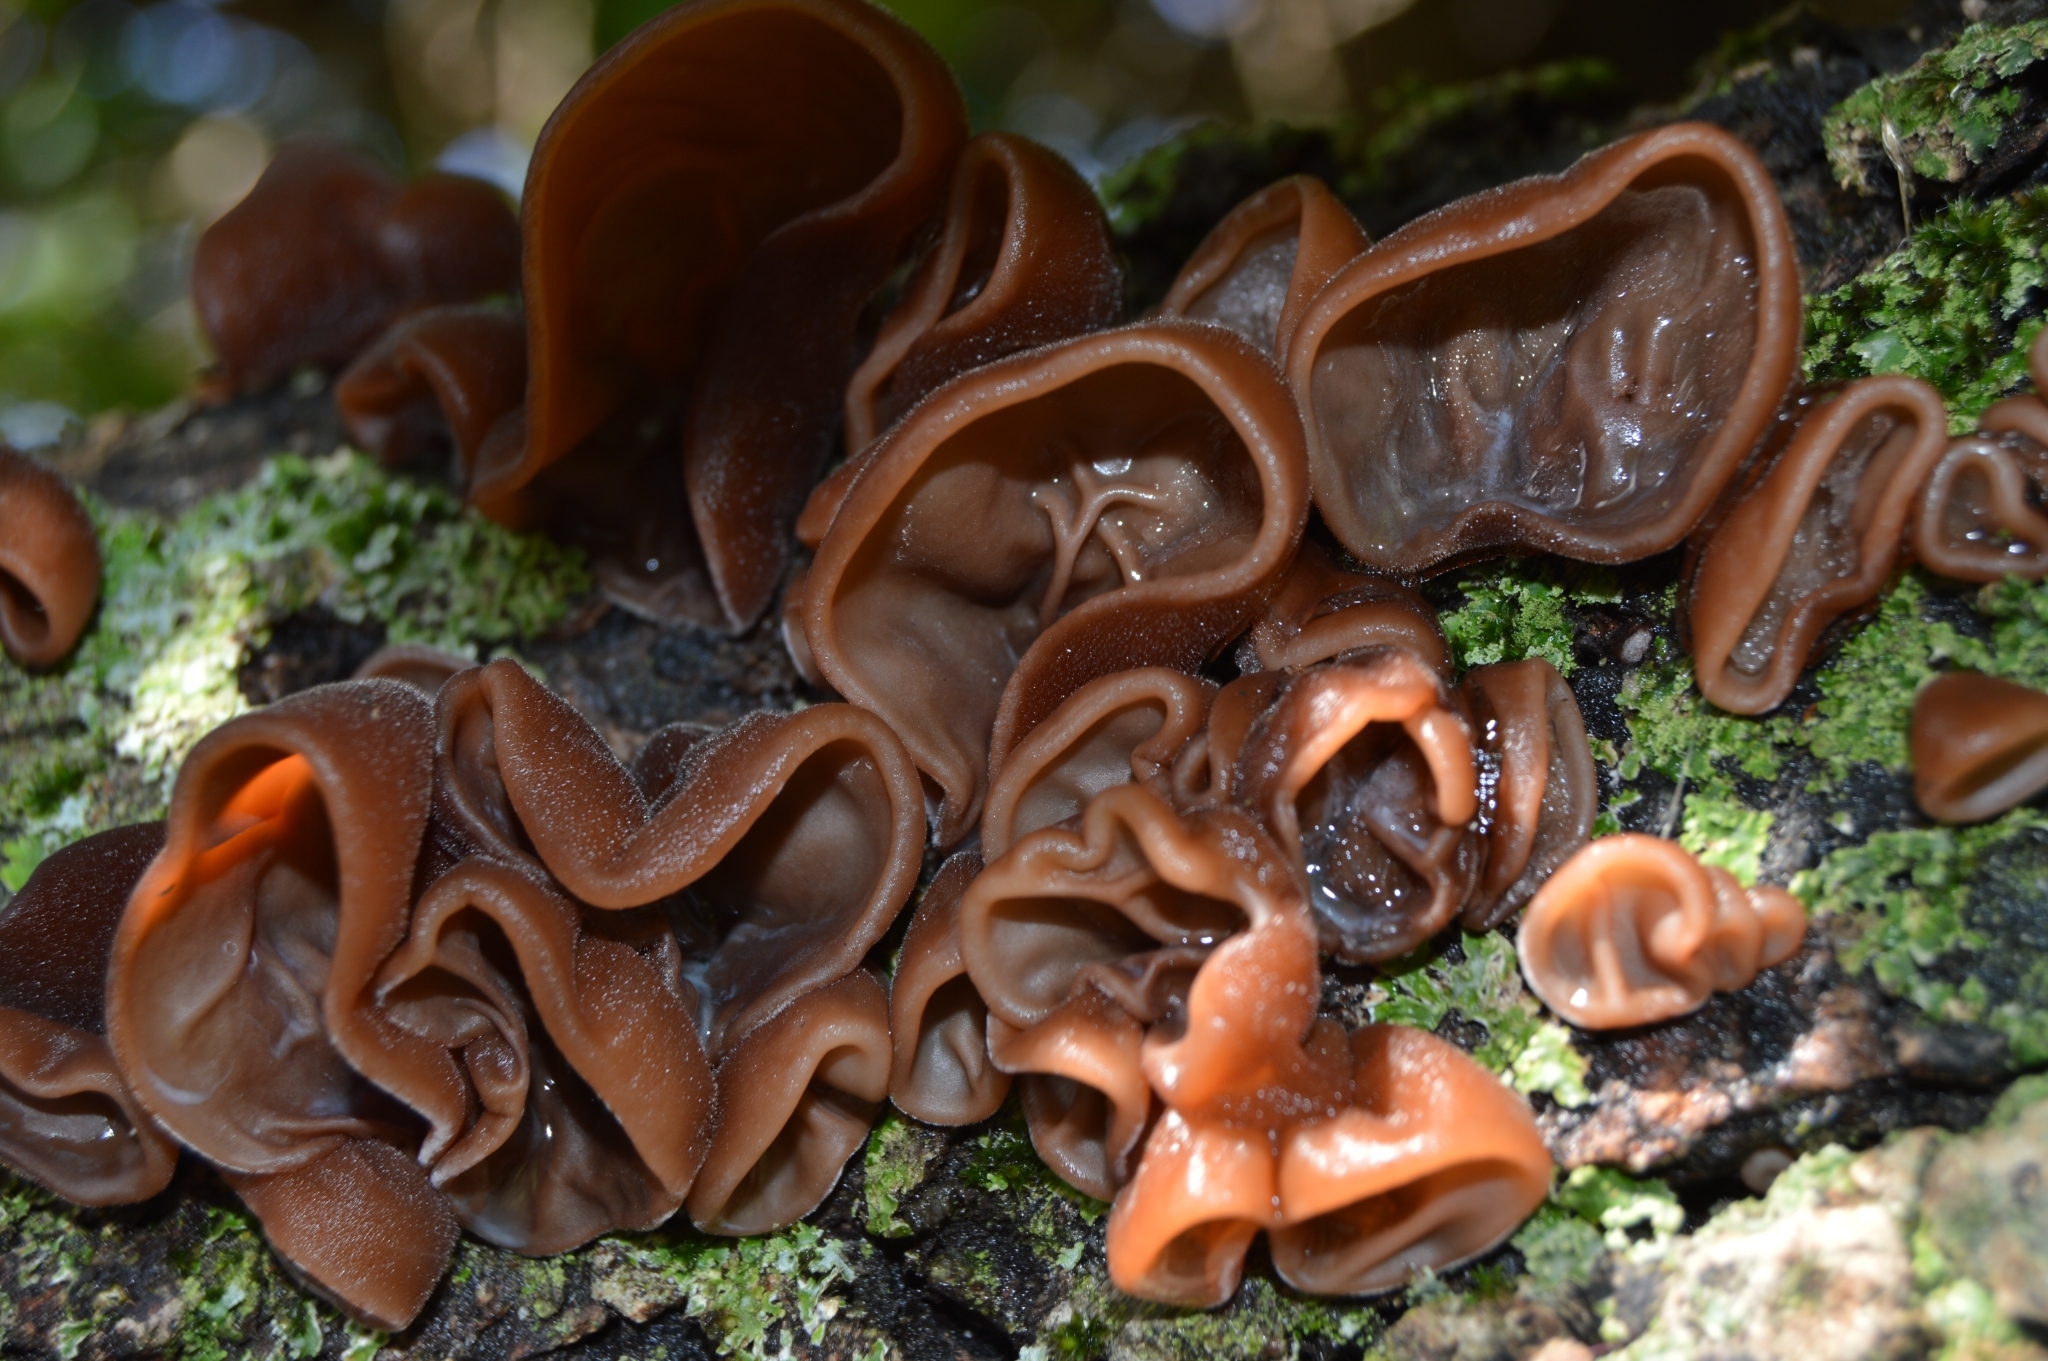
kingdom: Fungi
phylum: Basidiomycota
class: Agaricomycetes
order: Auriculariales
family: Auriculariaceae
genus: Auricularia
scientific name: Auricularia auricula-judae
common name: Jelly ear
